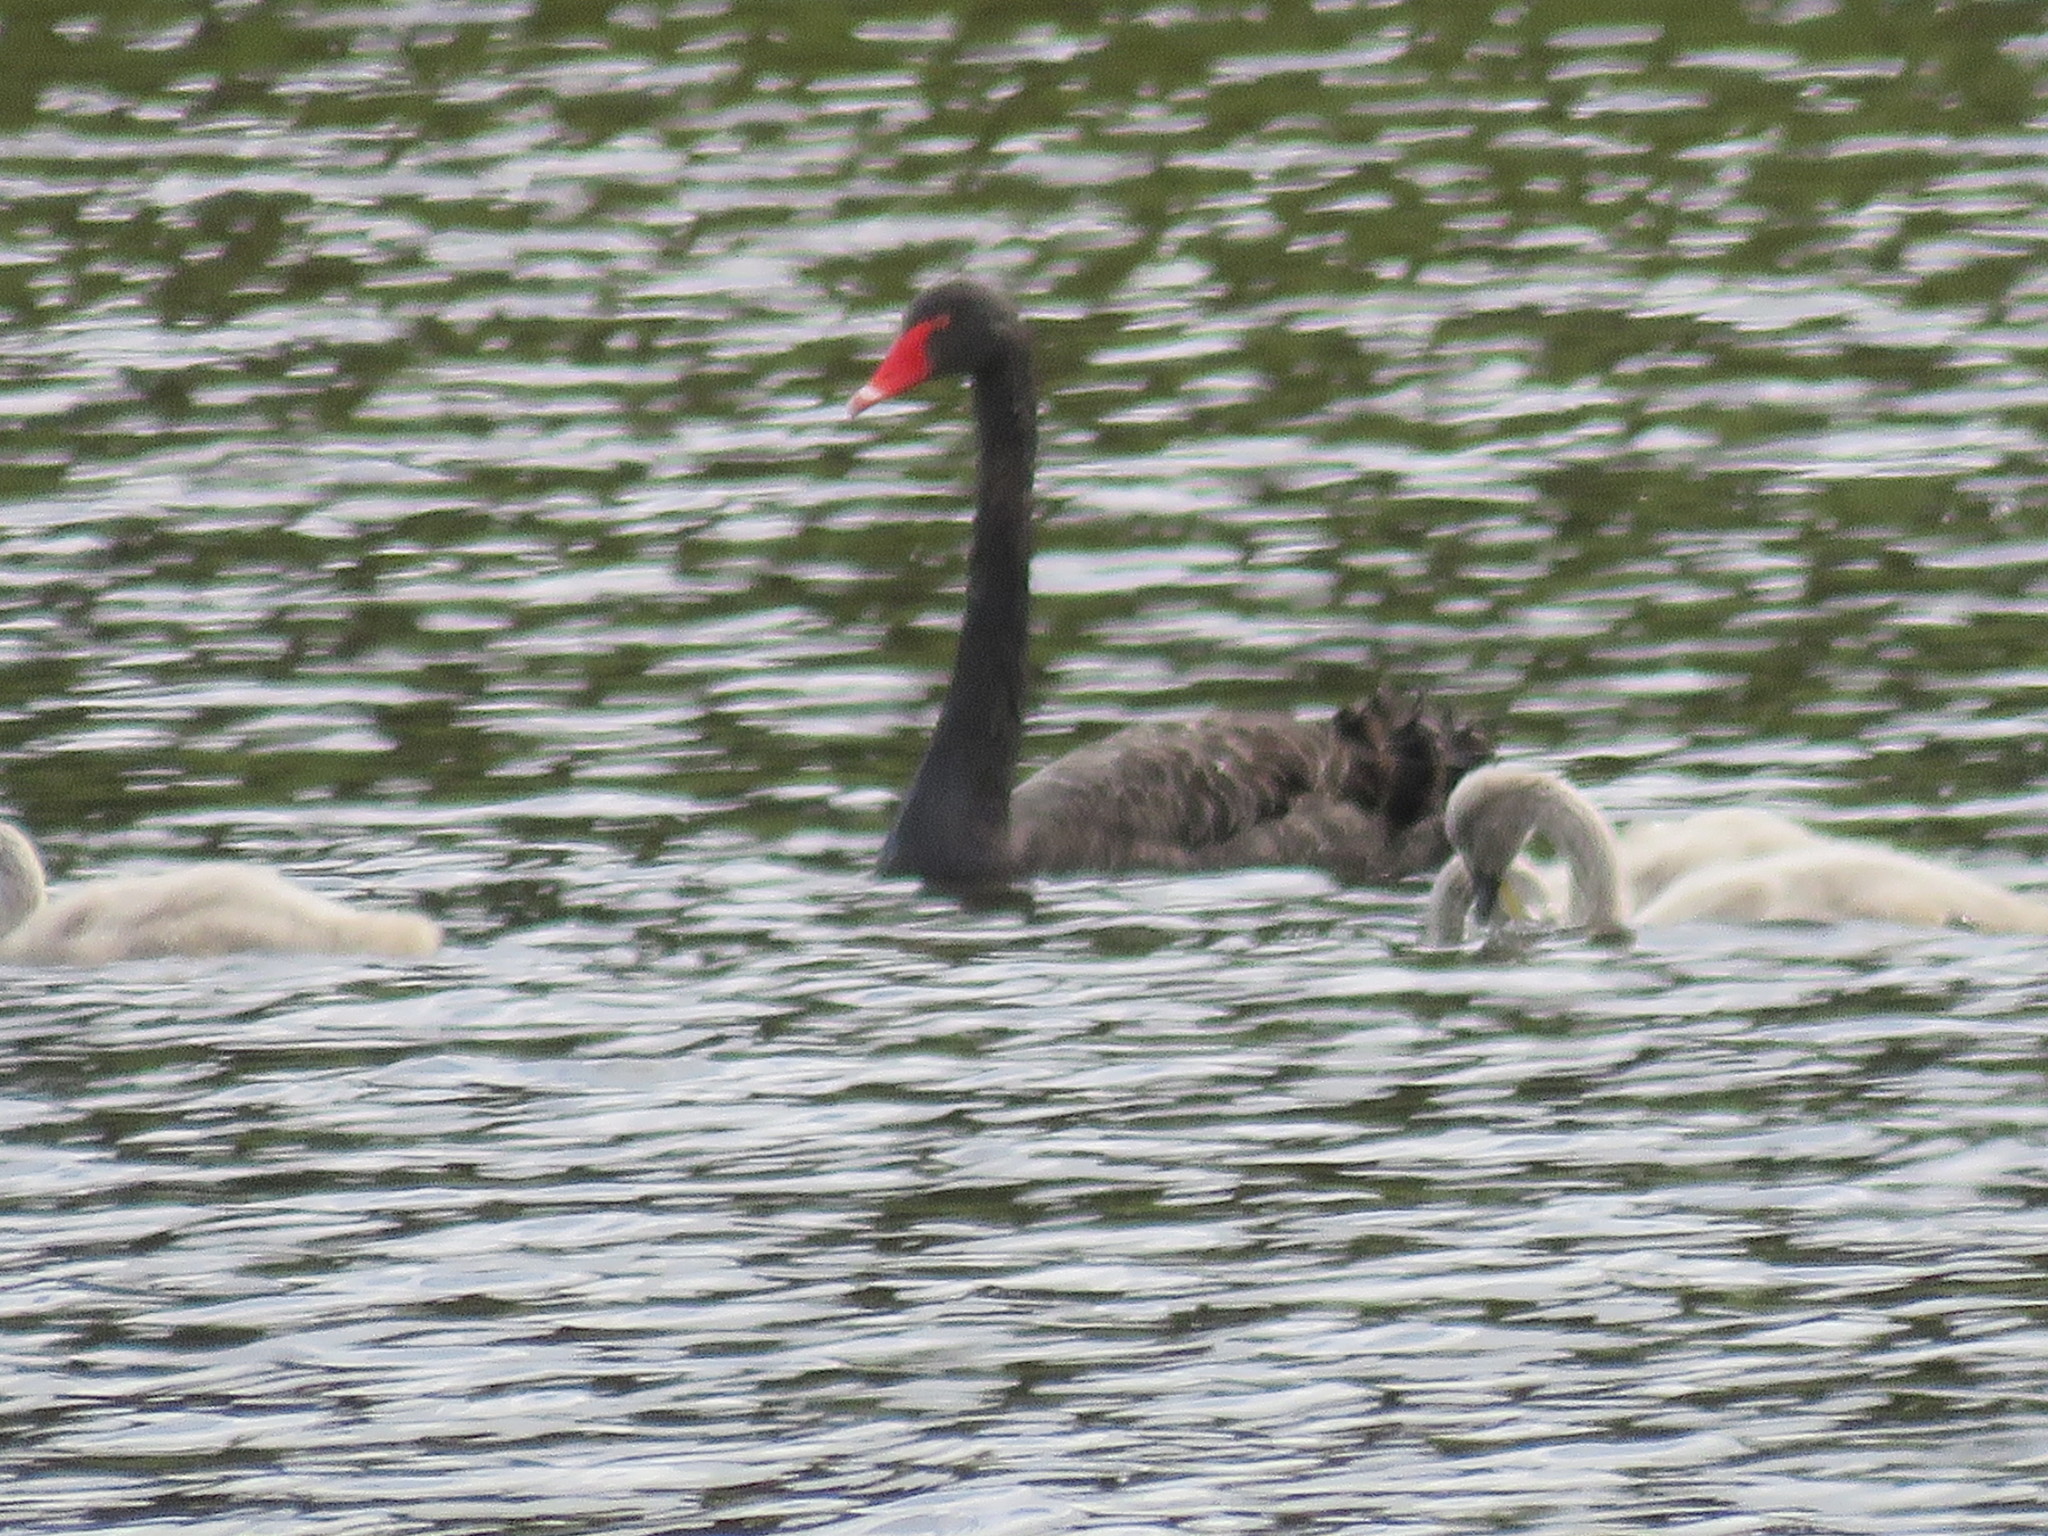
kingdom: Animalia
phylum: Chordata
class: Aves
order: Anseriformes
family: Anatidae
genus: Cygnus
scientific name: Cygnus atratus
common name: Black swan
